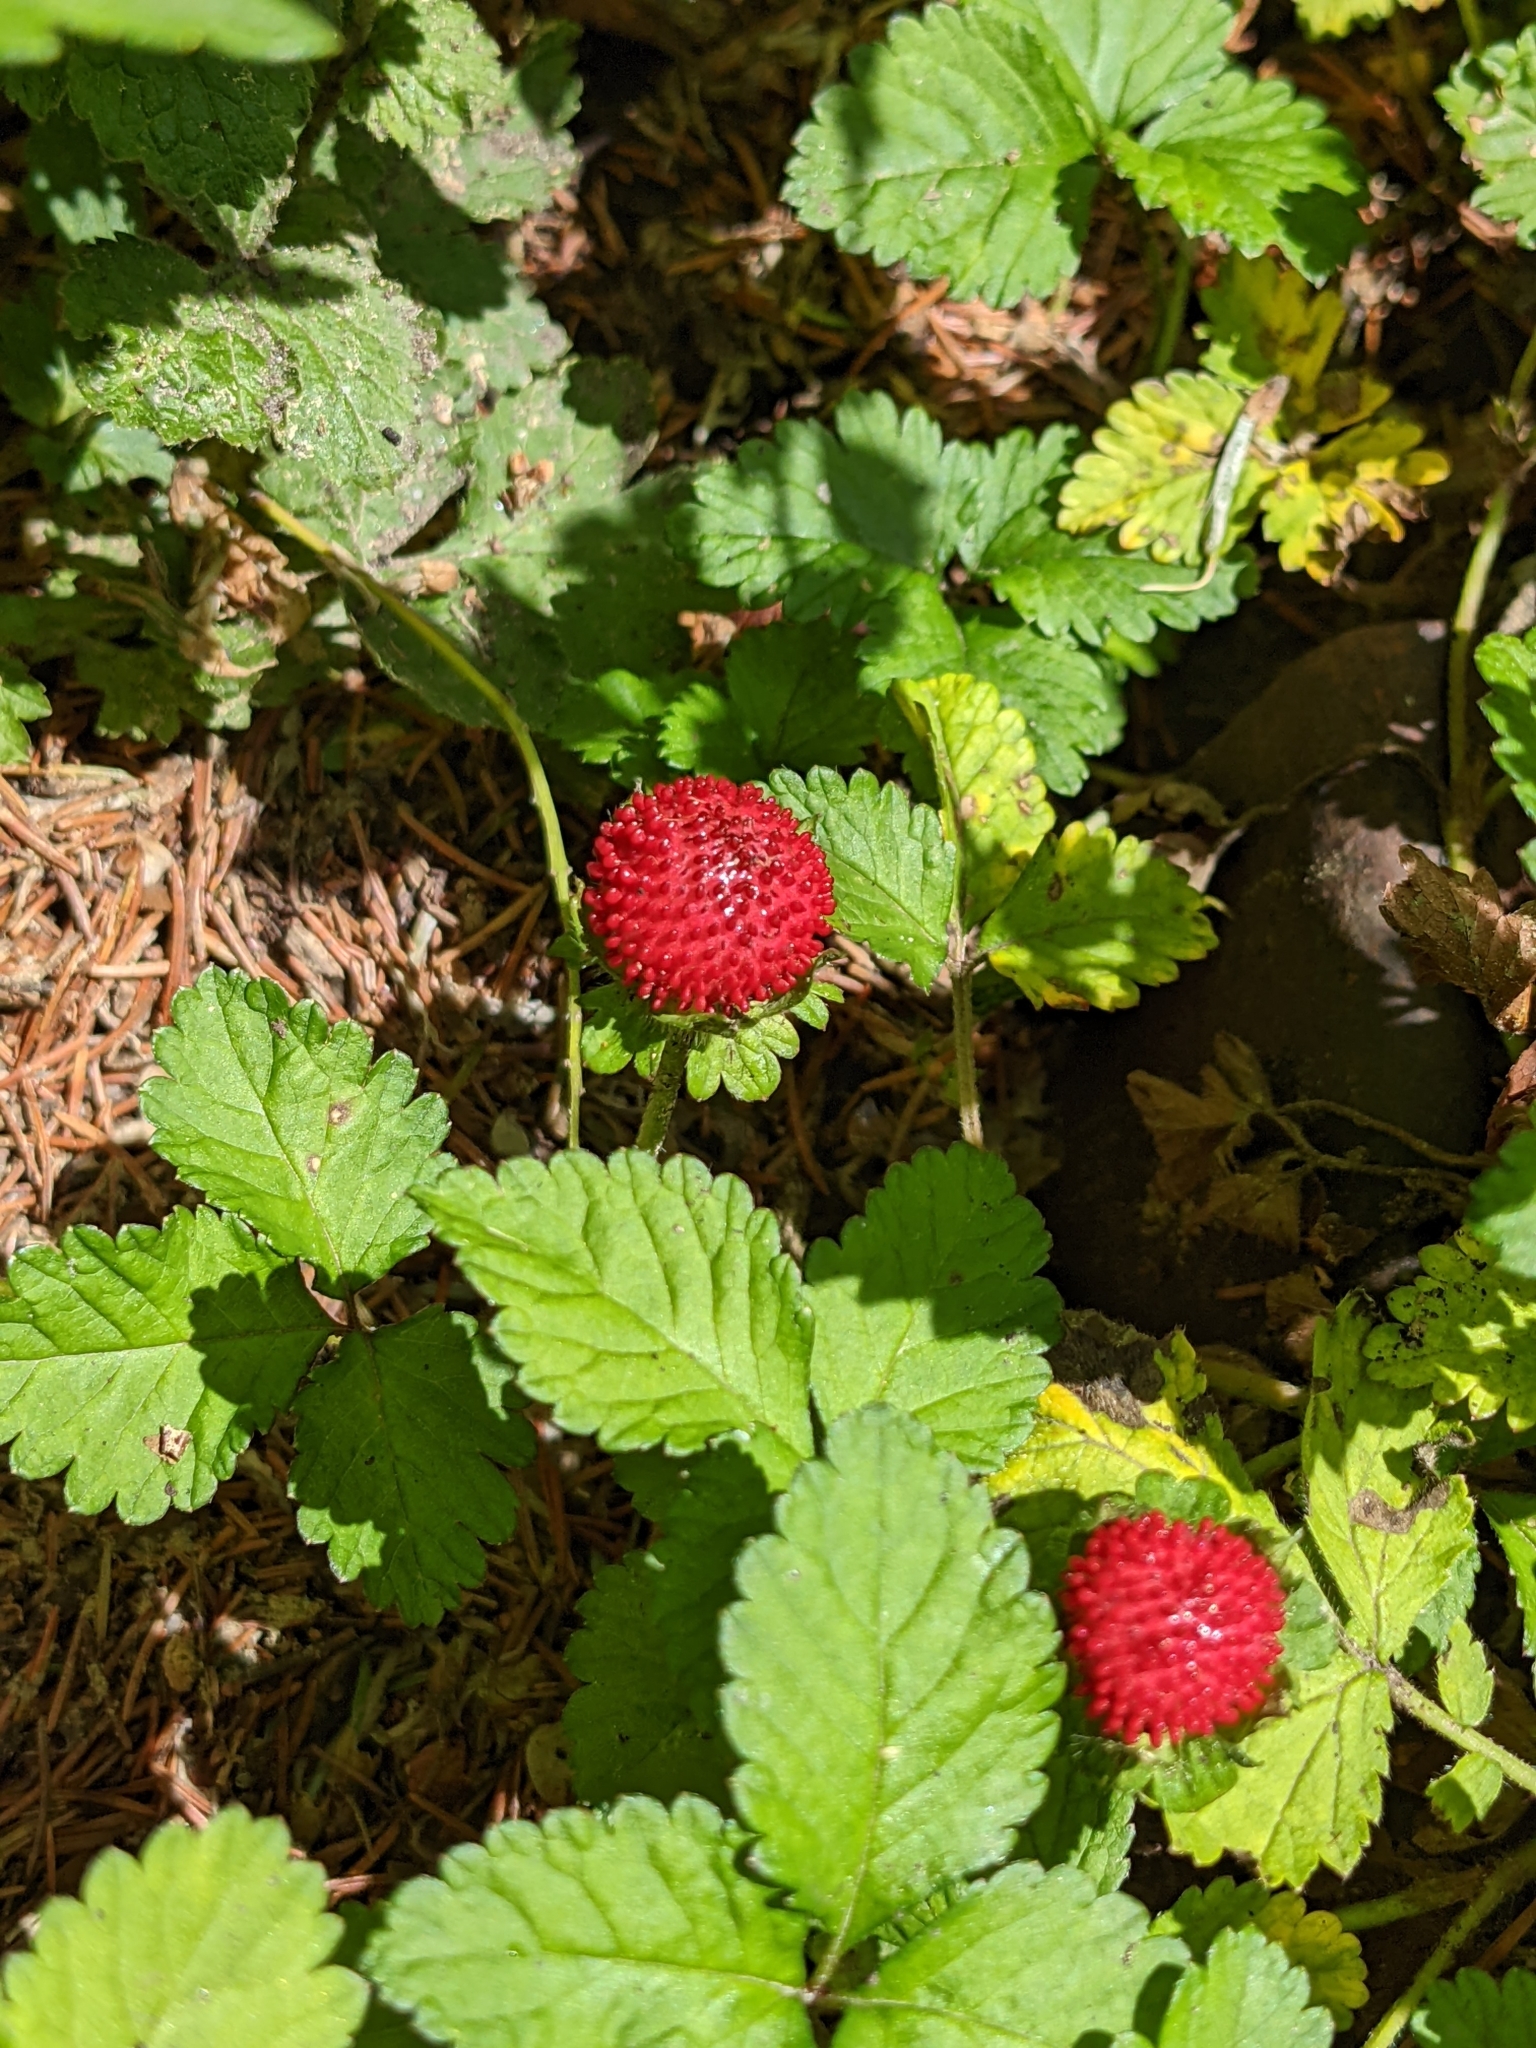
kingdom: Plantae
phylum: Tracheophyta
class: Magnoliopsida
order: Rosales
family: Rosaceae
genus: Potentilla
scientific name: Potentilla indica
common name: Yellow-flowered strawberry
